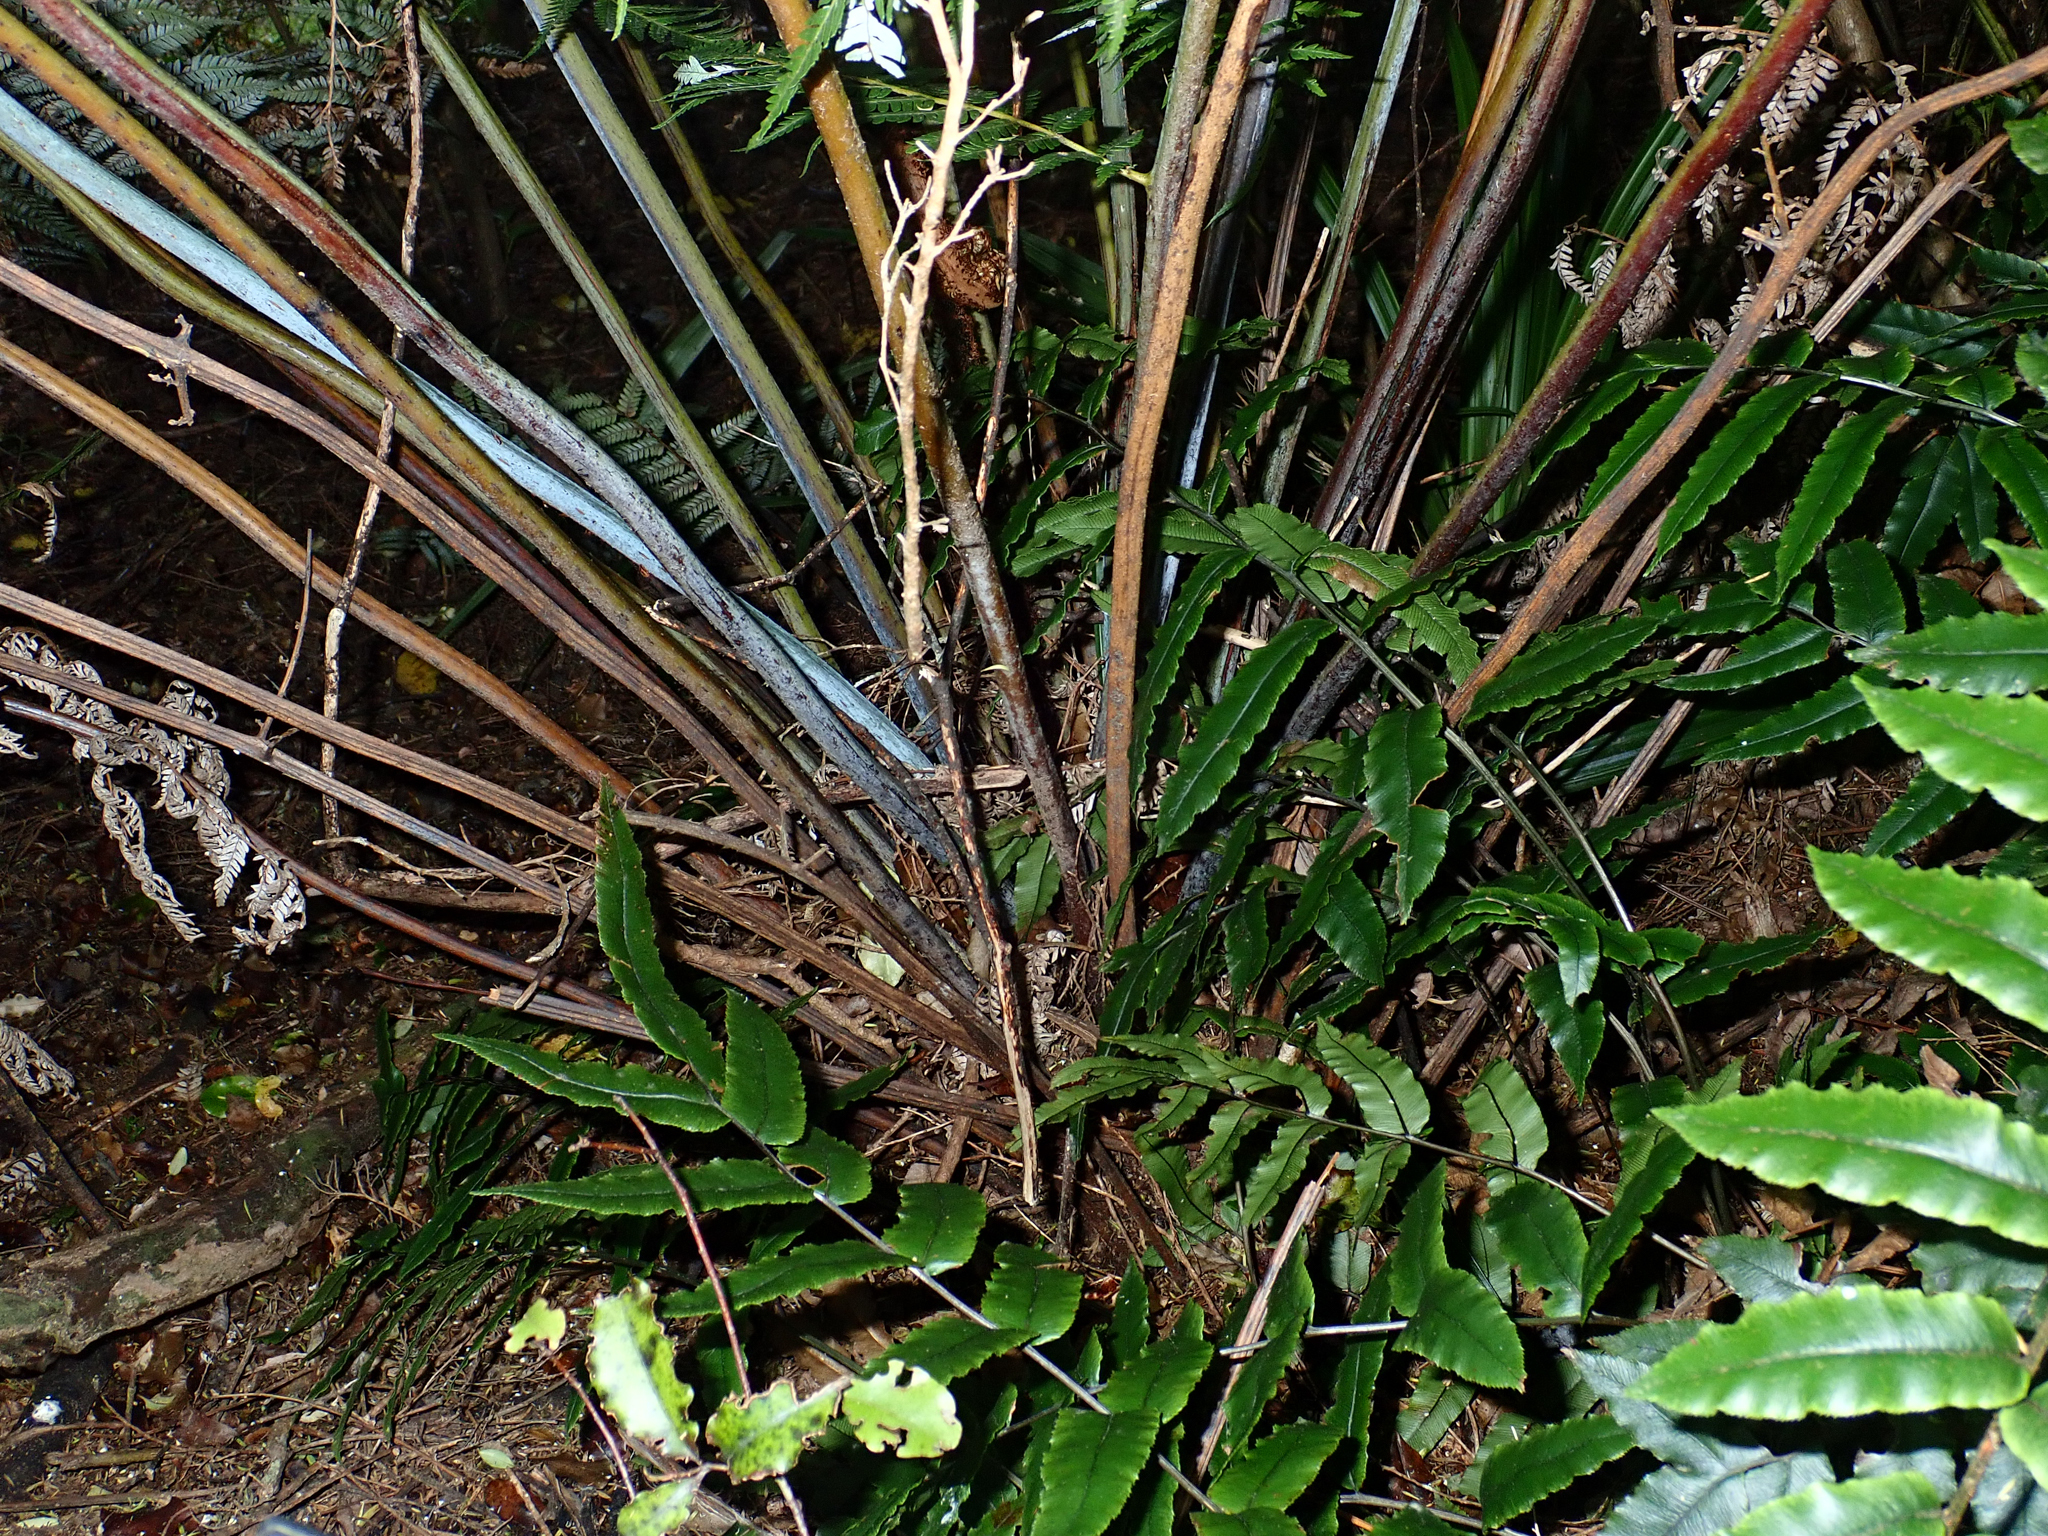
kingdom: Plantae
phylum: Tracheophyta
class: Polypodiopsida
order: Cyatheales
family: Cyatheaceae
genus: Alsophila
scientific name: Alsophila dealbata
